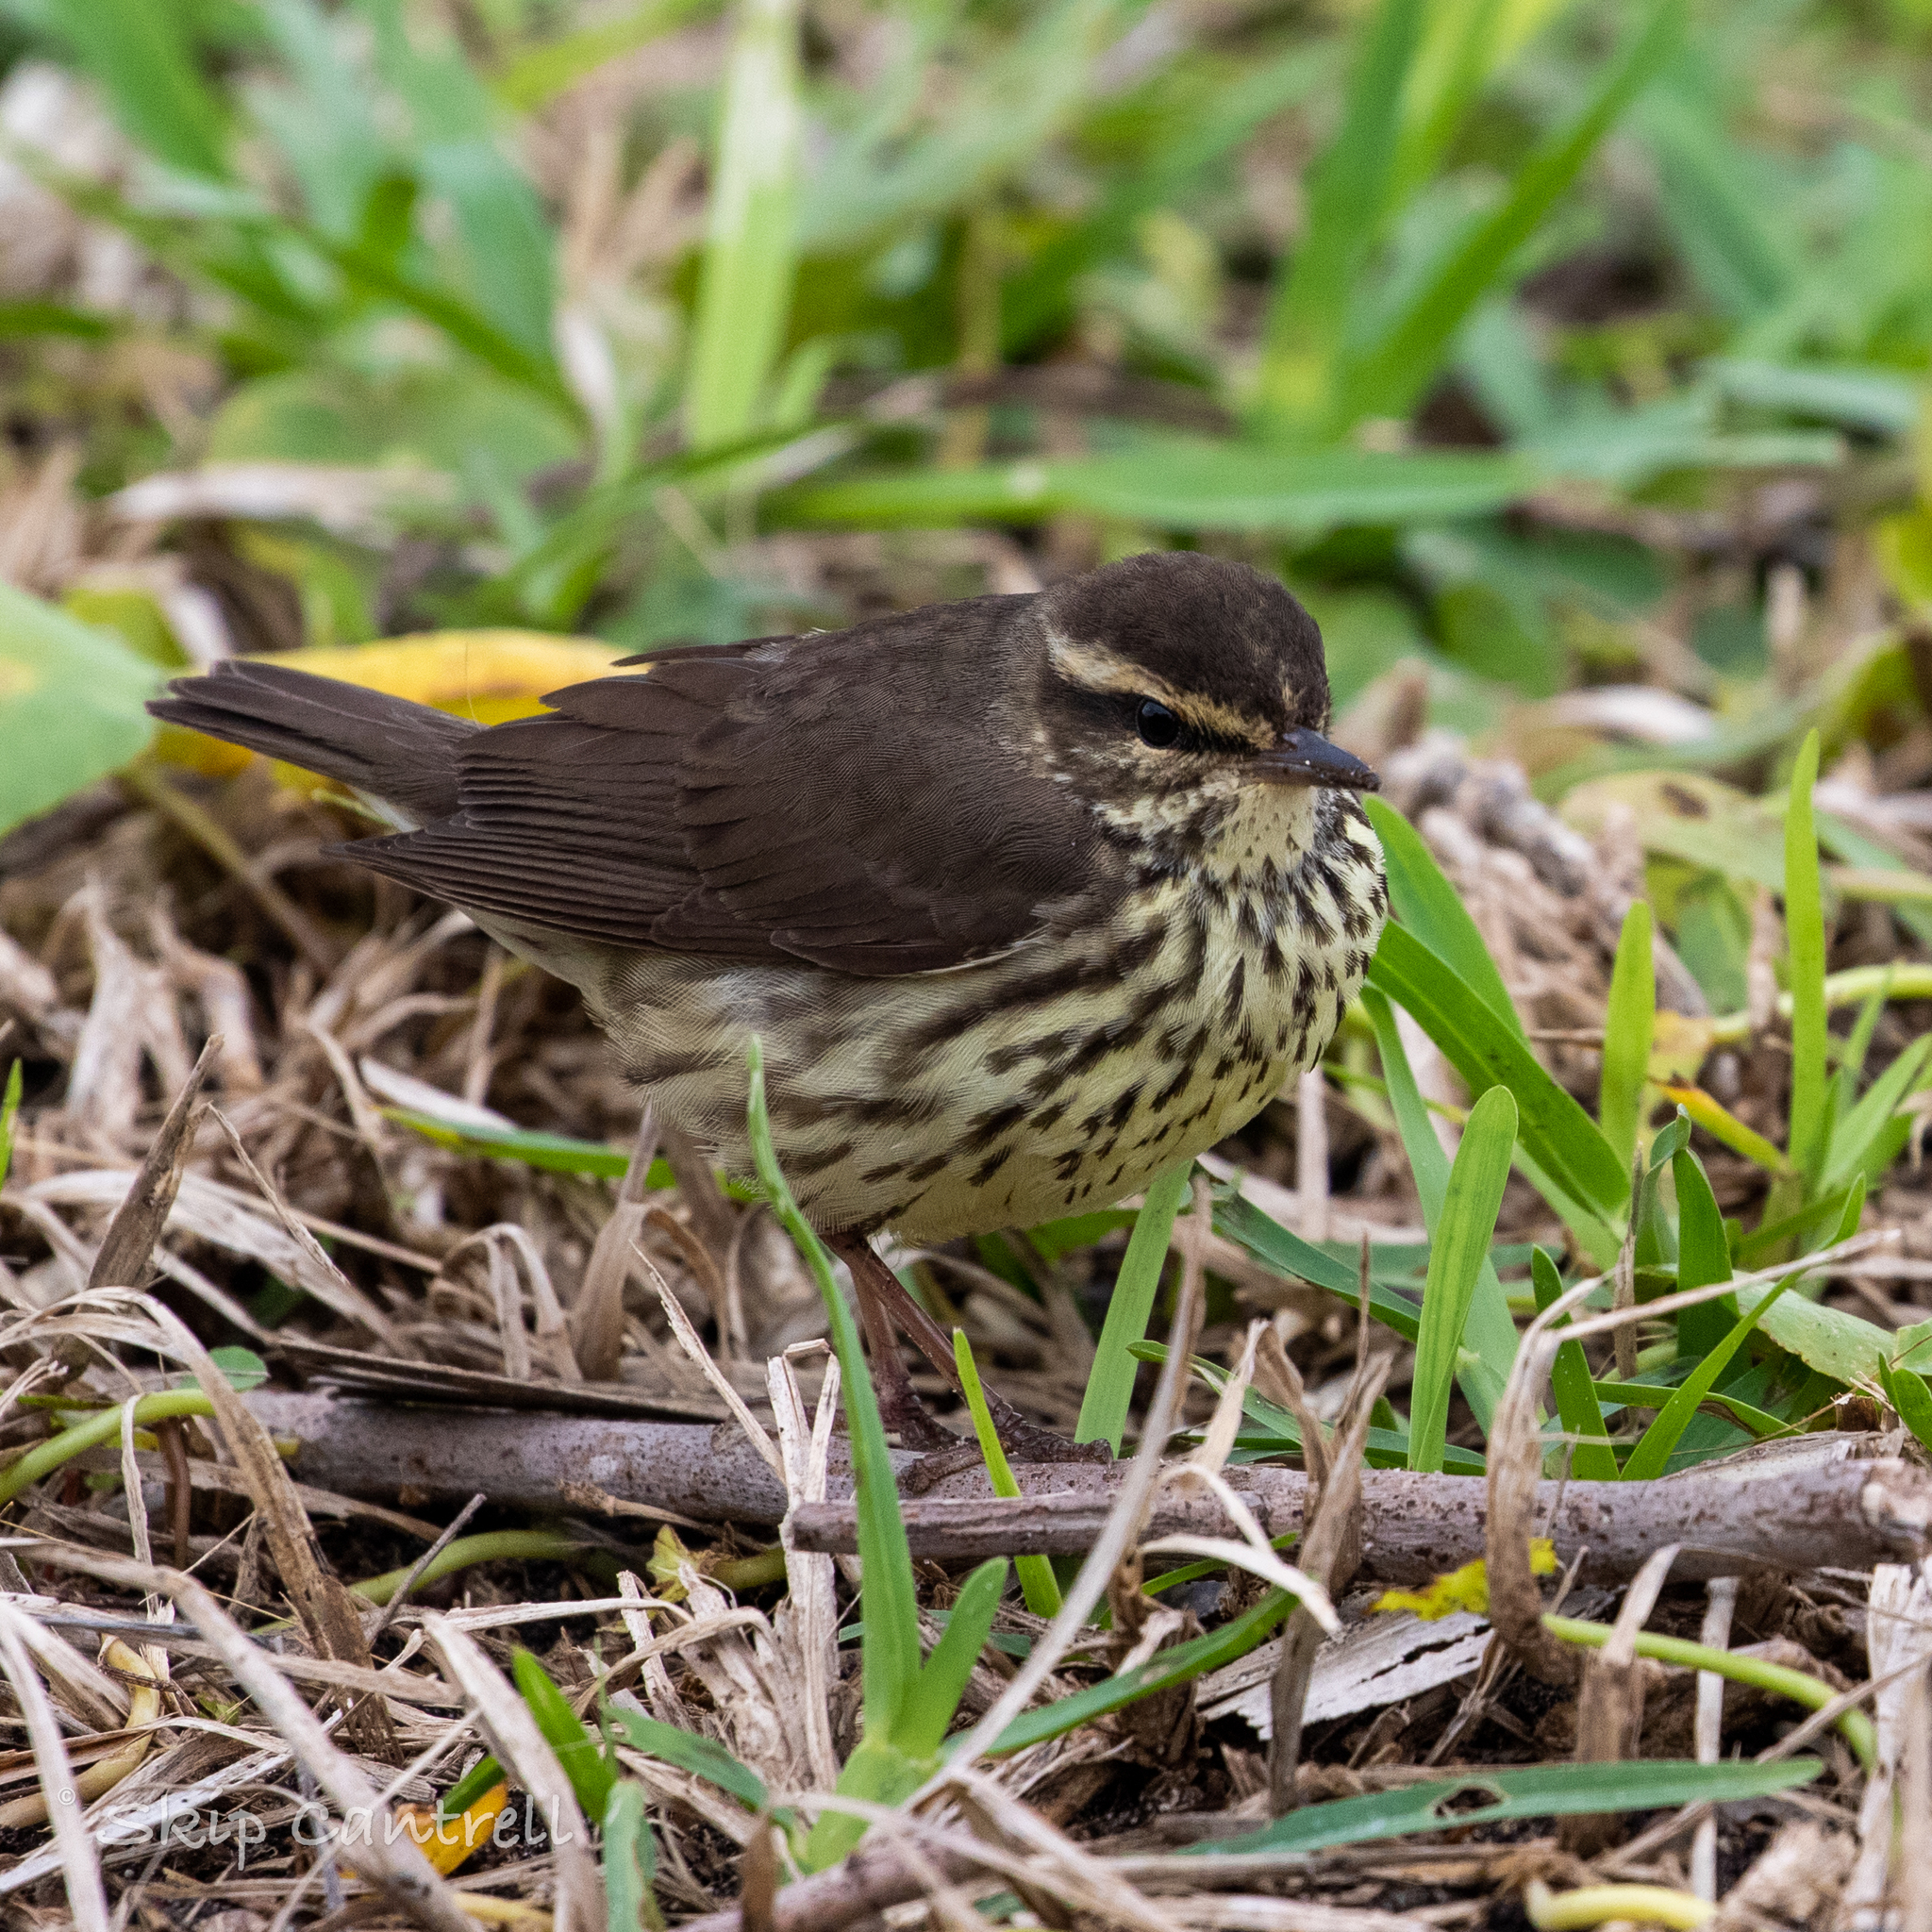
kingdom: Animalia
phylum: Chordata
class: Aves
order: Passeriformes
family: Parulidae
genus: Parkesia
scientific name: Parkesia noveboracensis
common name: Northern waterthrush
